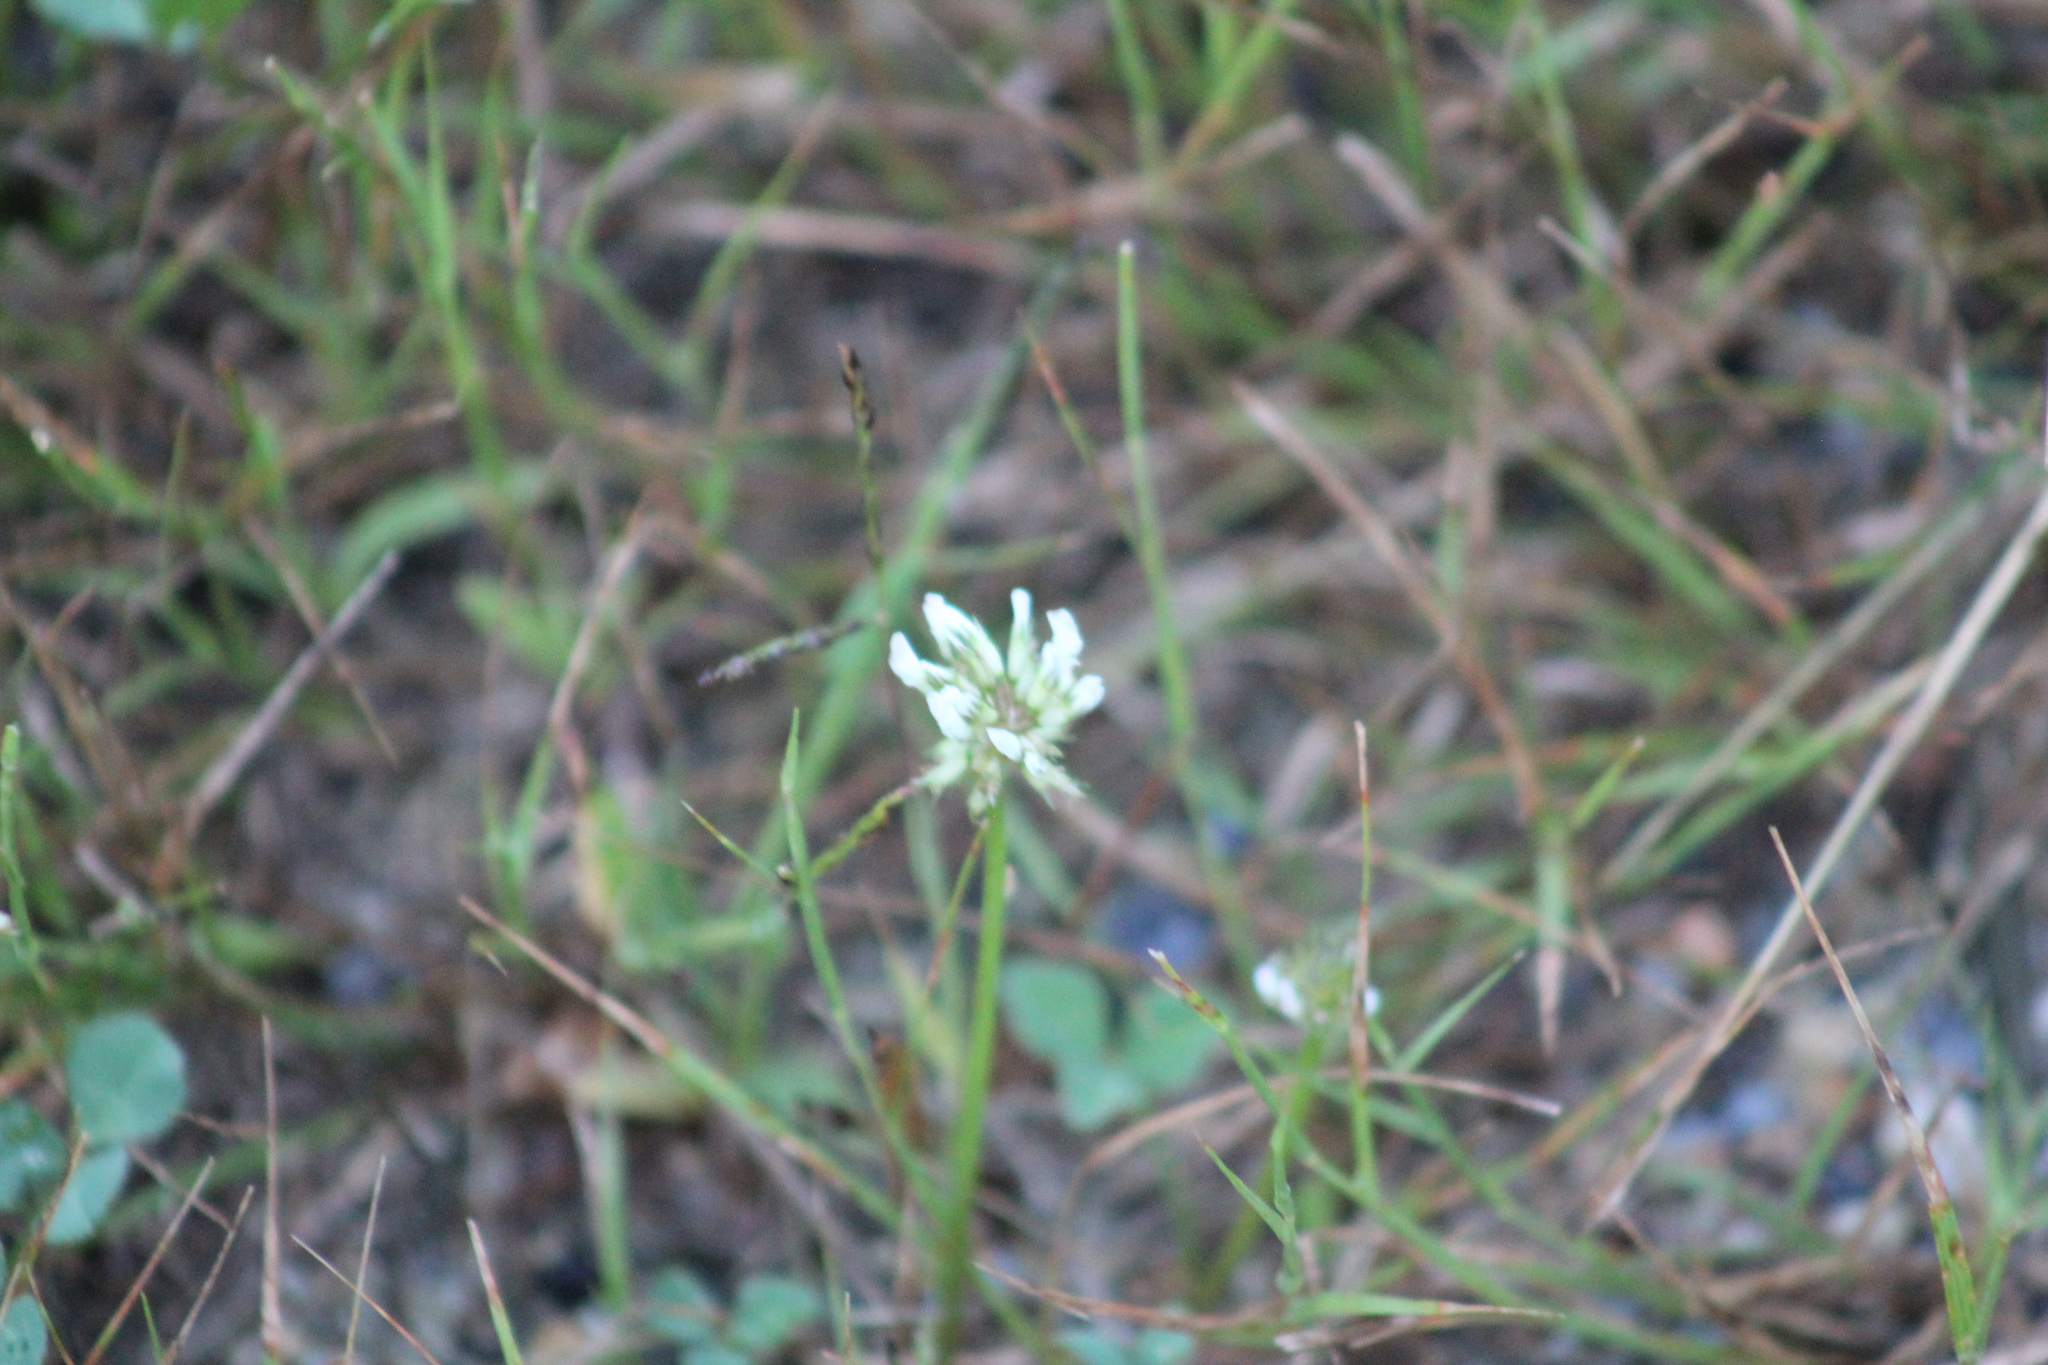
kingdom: Plantae
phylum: Tracheophyta
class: Magnoliopsida
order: Fabales
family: Fabaceae
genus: Trifolium
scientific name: Trifolium repens
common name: White clover
